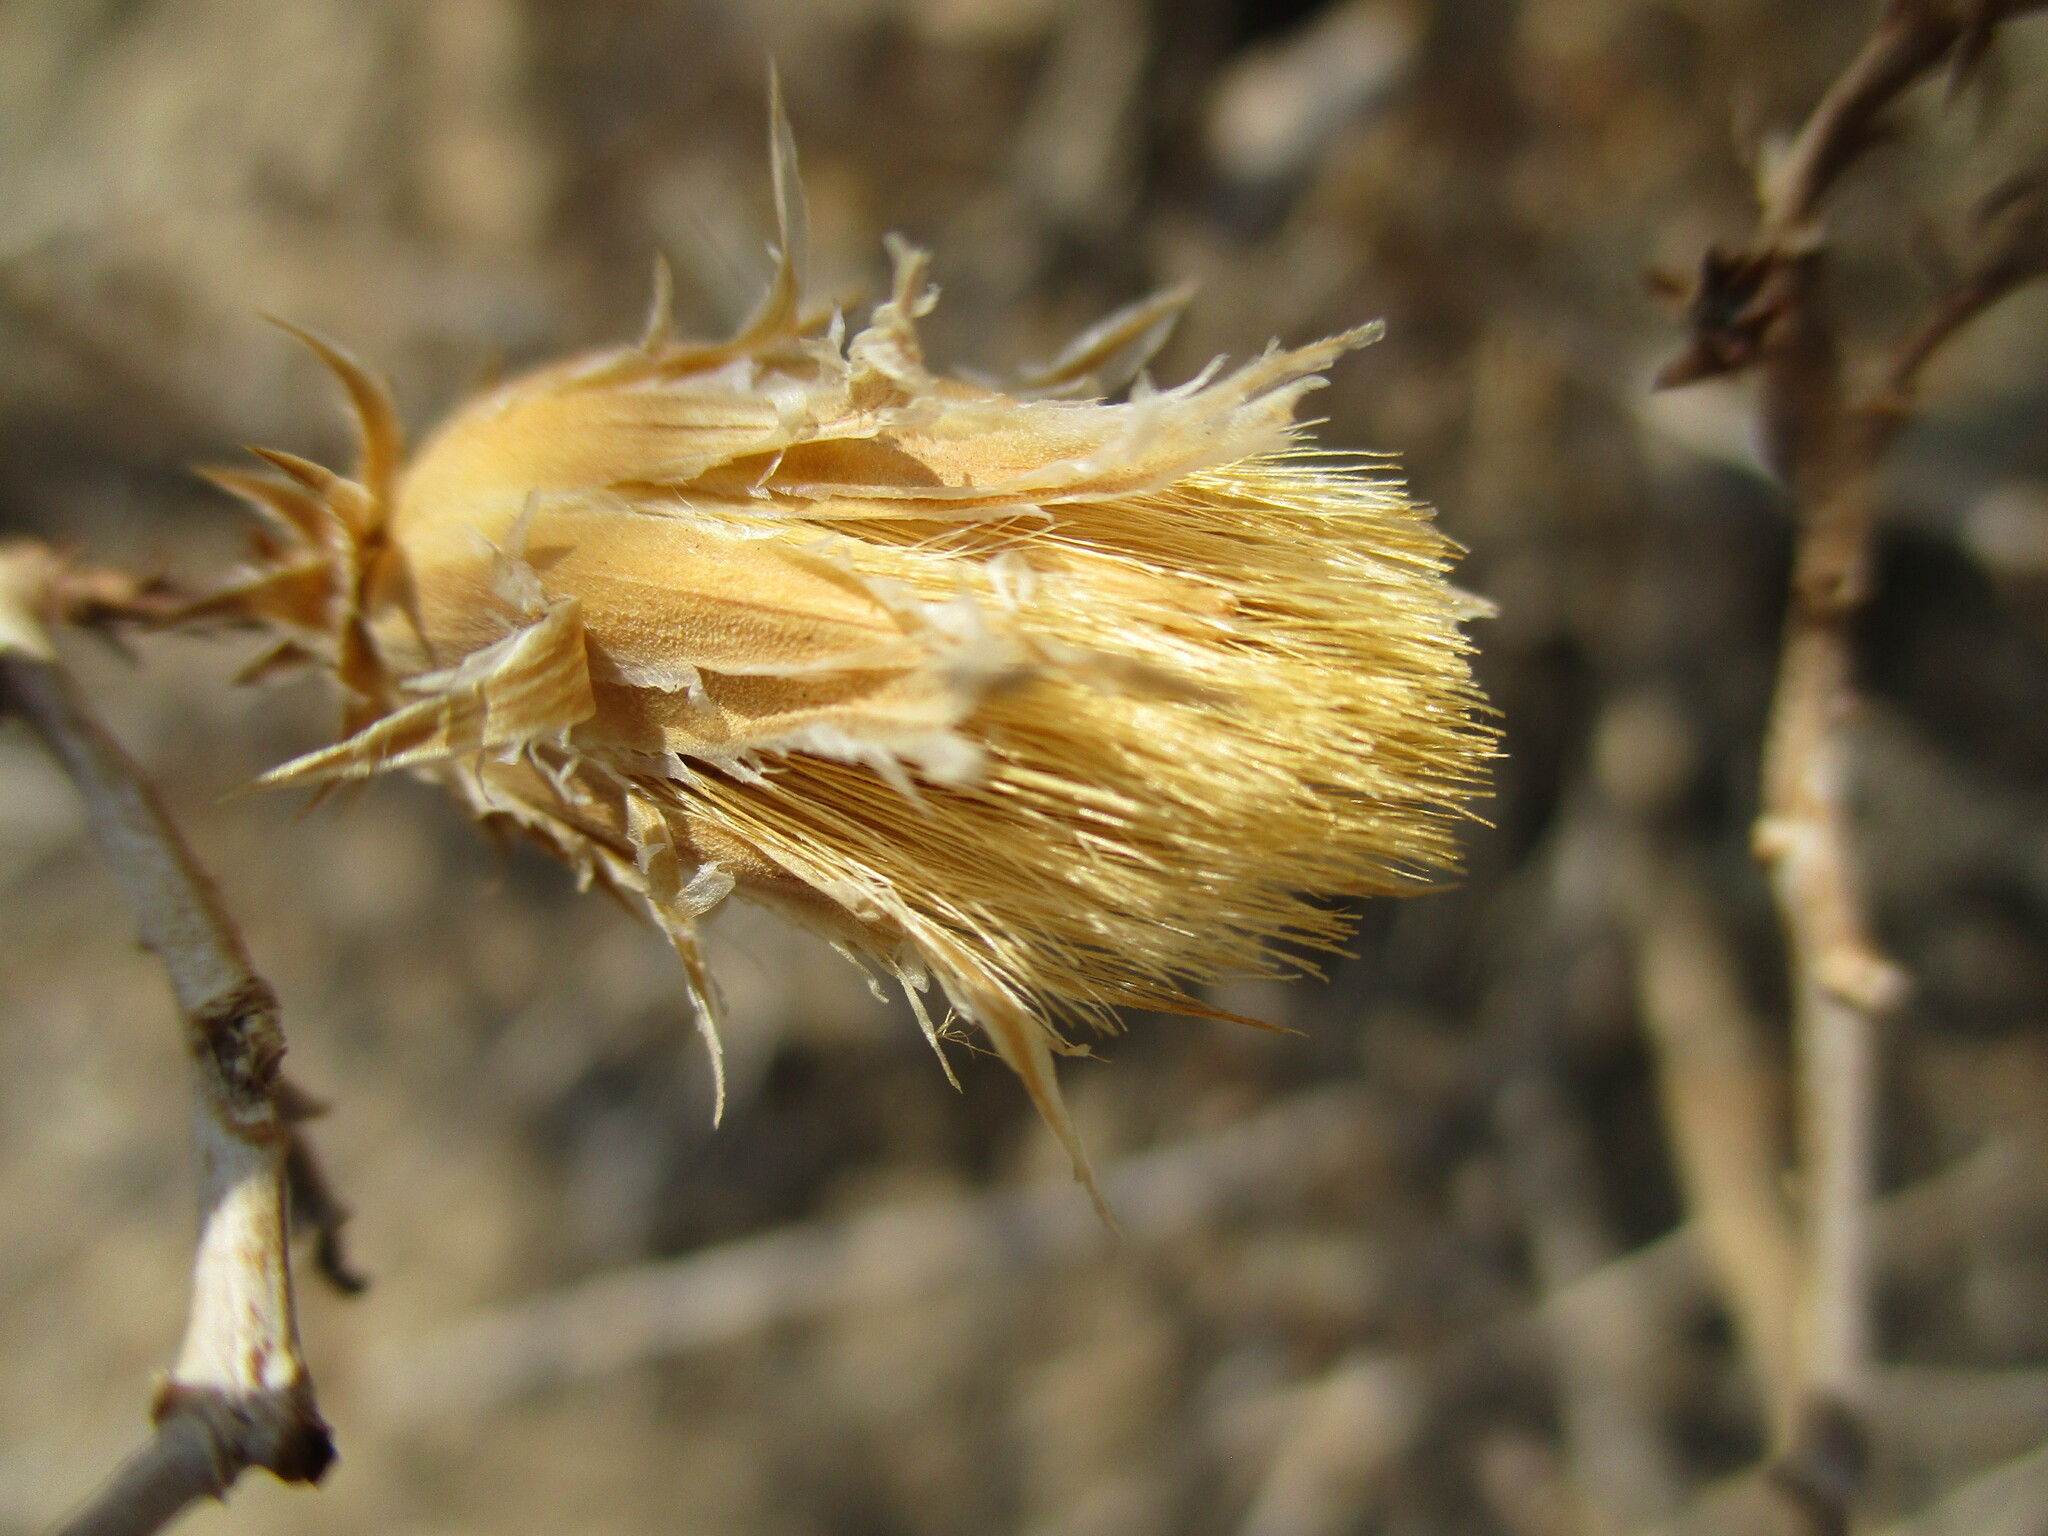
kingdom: Plantae
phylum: Tracheophyta
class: Magnoliopsida
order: Asterales
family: Asteraceae
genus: Pteronia
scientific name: Pteronia acuminata
